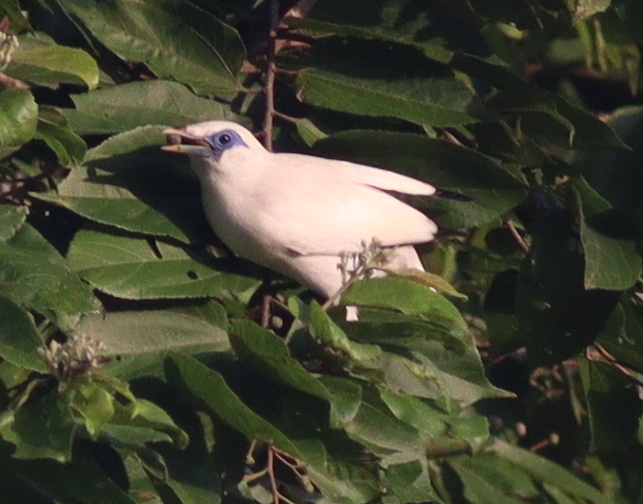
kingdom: Animalia
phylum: Chordata
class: Aves
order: Passeriformes
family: Sturnidae
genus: Leucopsar
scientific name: Leucopsar rothschildi
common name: Bali myna
